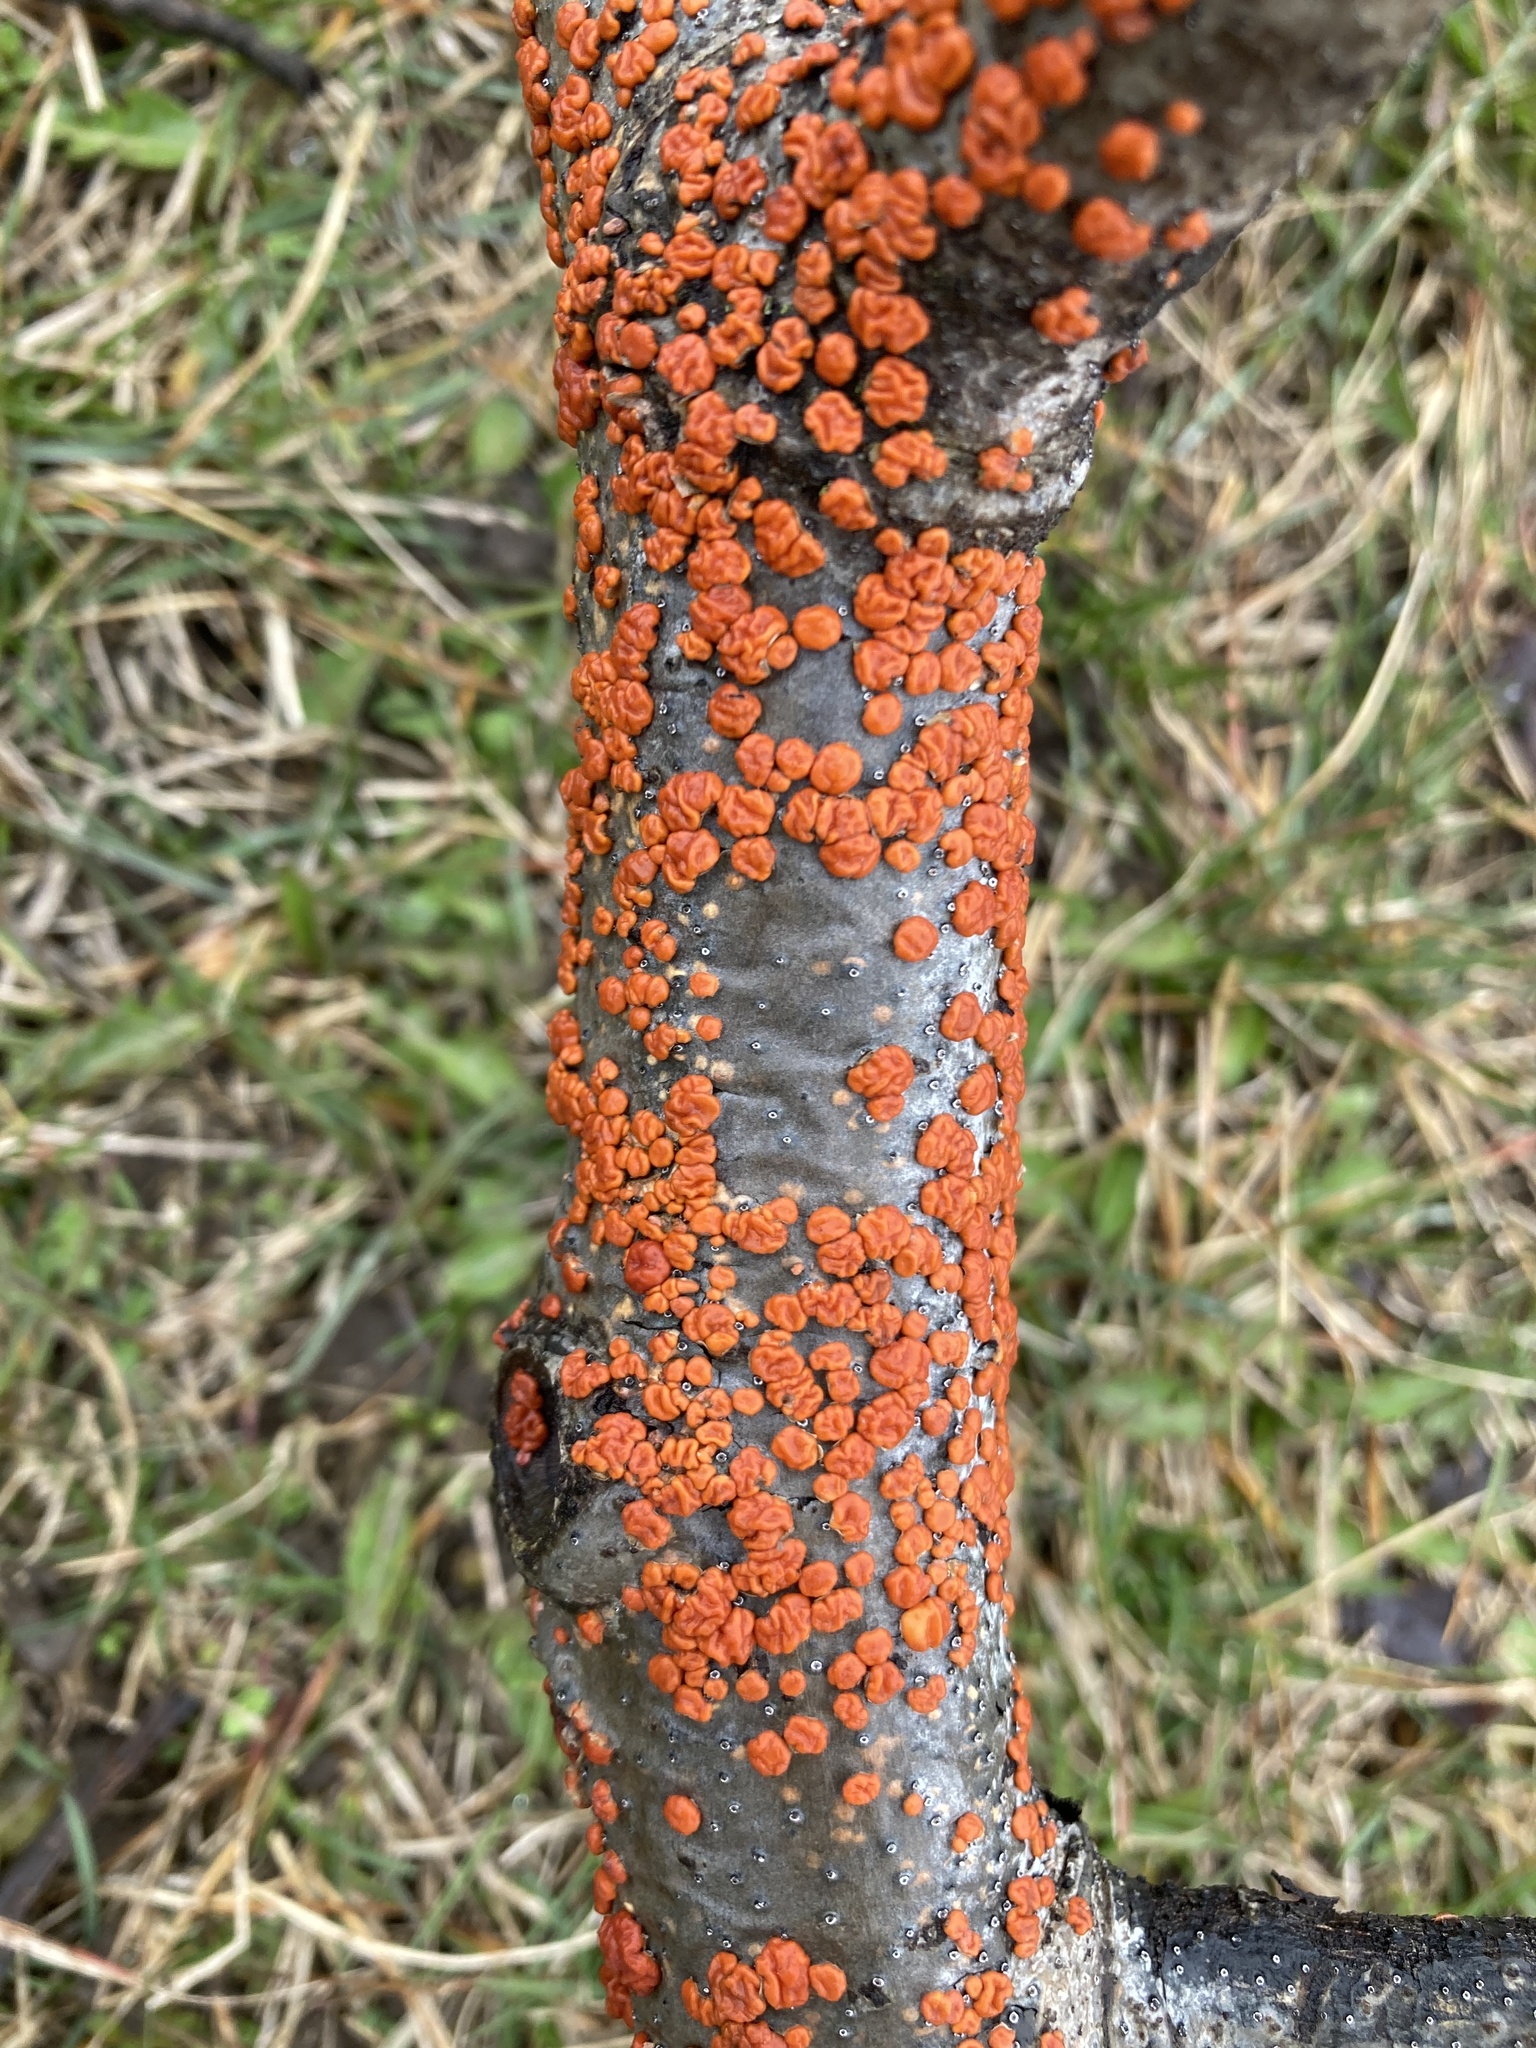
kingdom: Fungi
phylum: Basidiomycota
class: Agaricomycetes
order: Russulales
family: Peniophoraceae
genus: Peniophora
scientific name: Peniophora rufa
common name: Red tree brain fungus
